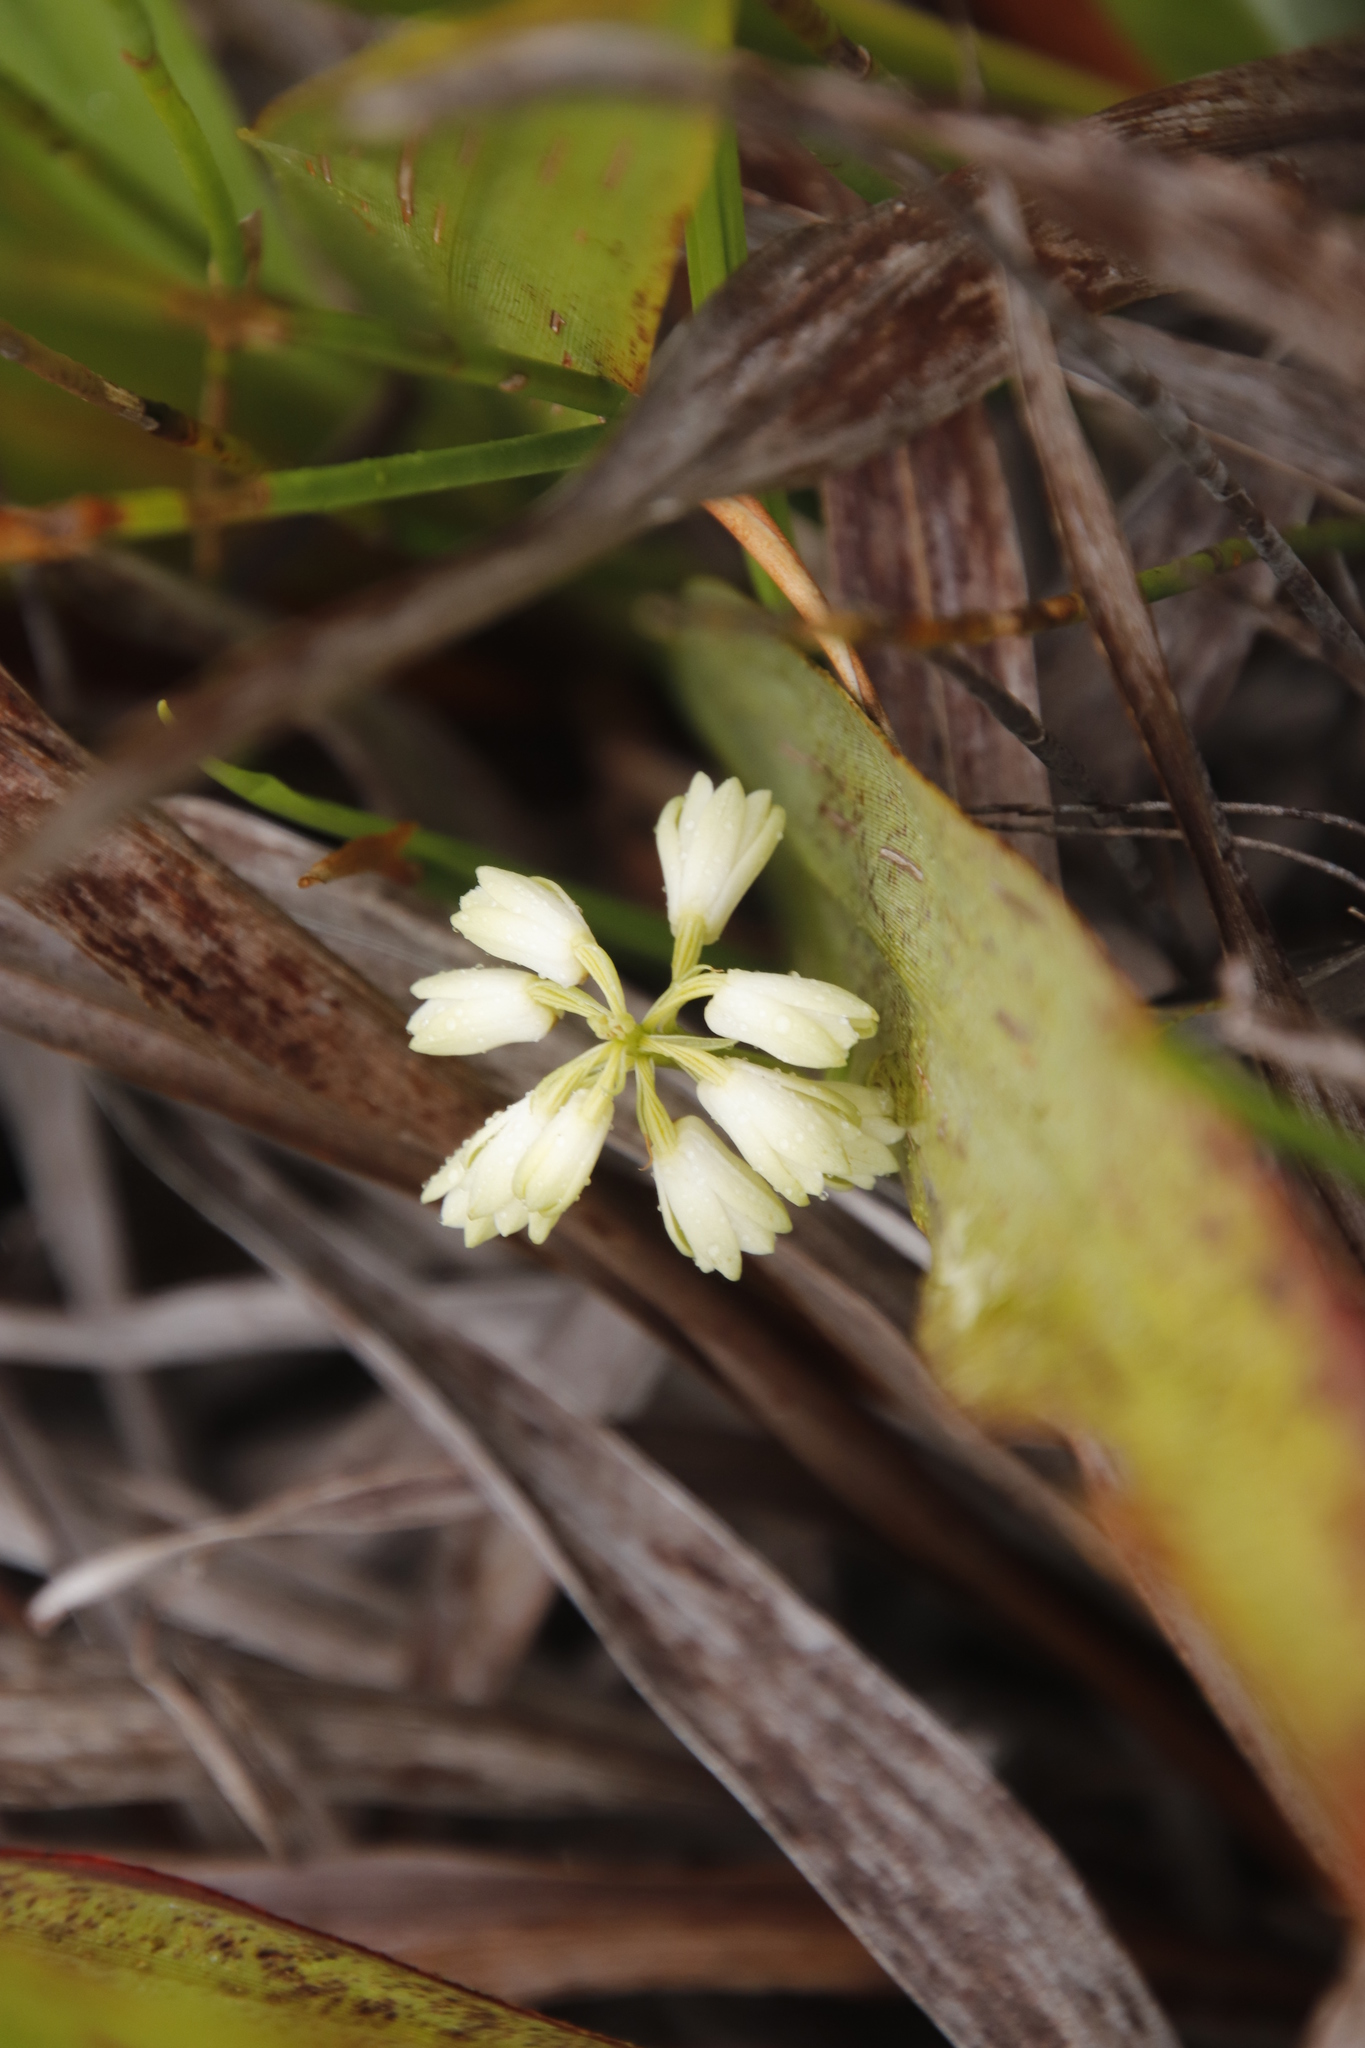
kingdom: Plantae
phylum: Tracheophyta
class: Liliopsida
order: Asparagales
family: Orchidaceae
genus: Eulophia
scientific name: Eulophia aculeata
